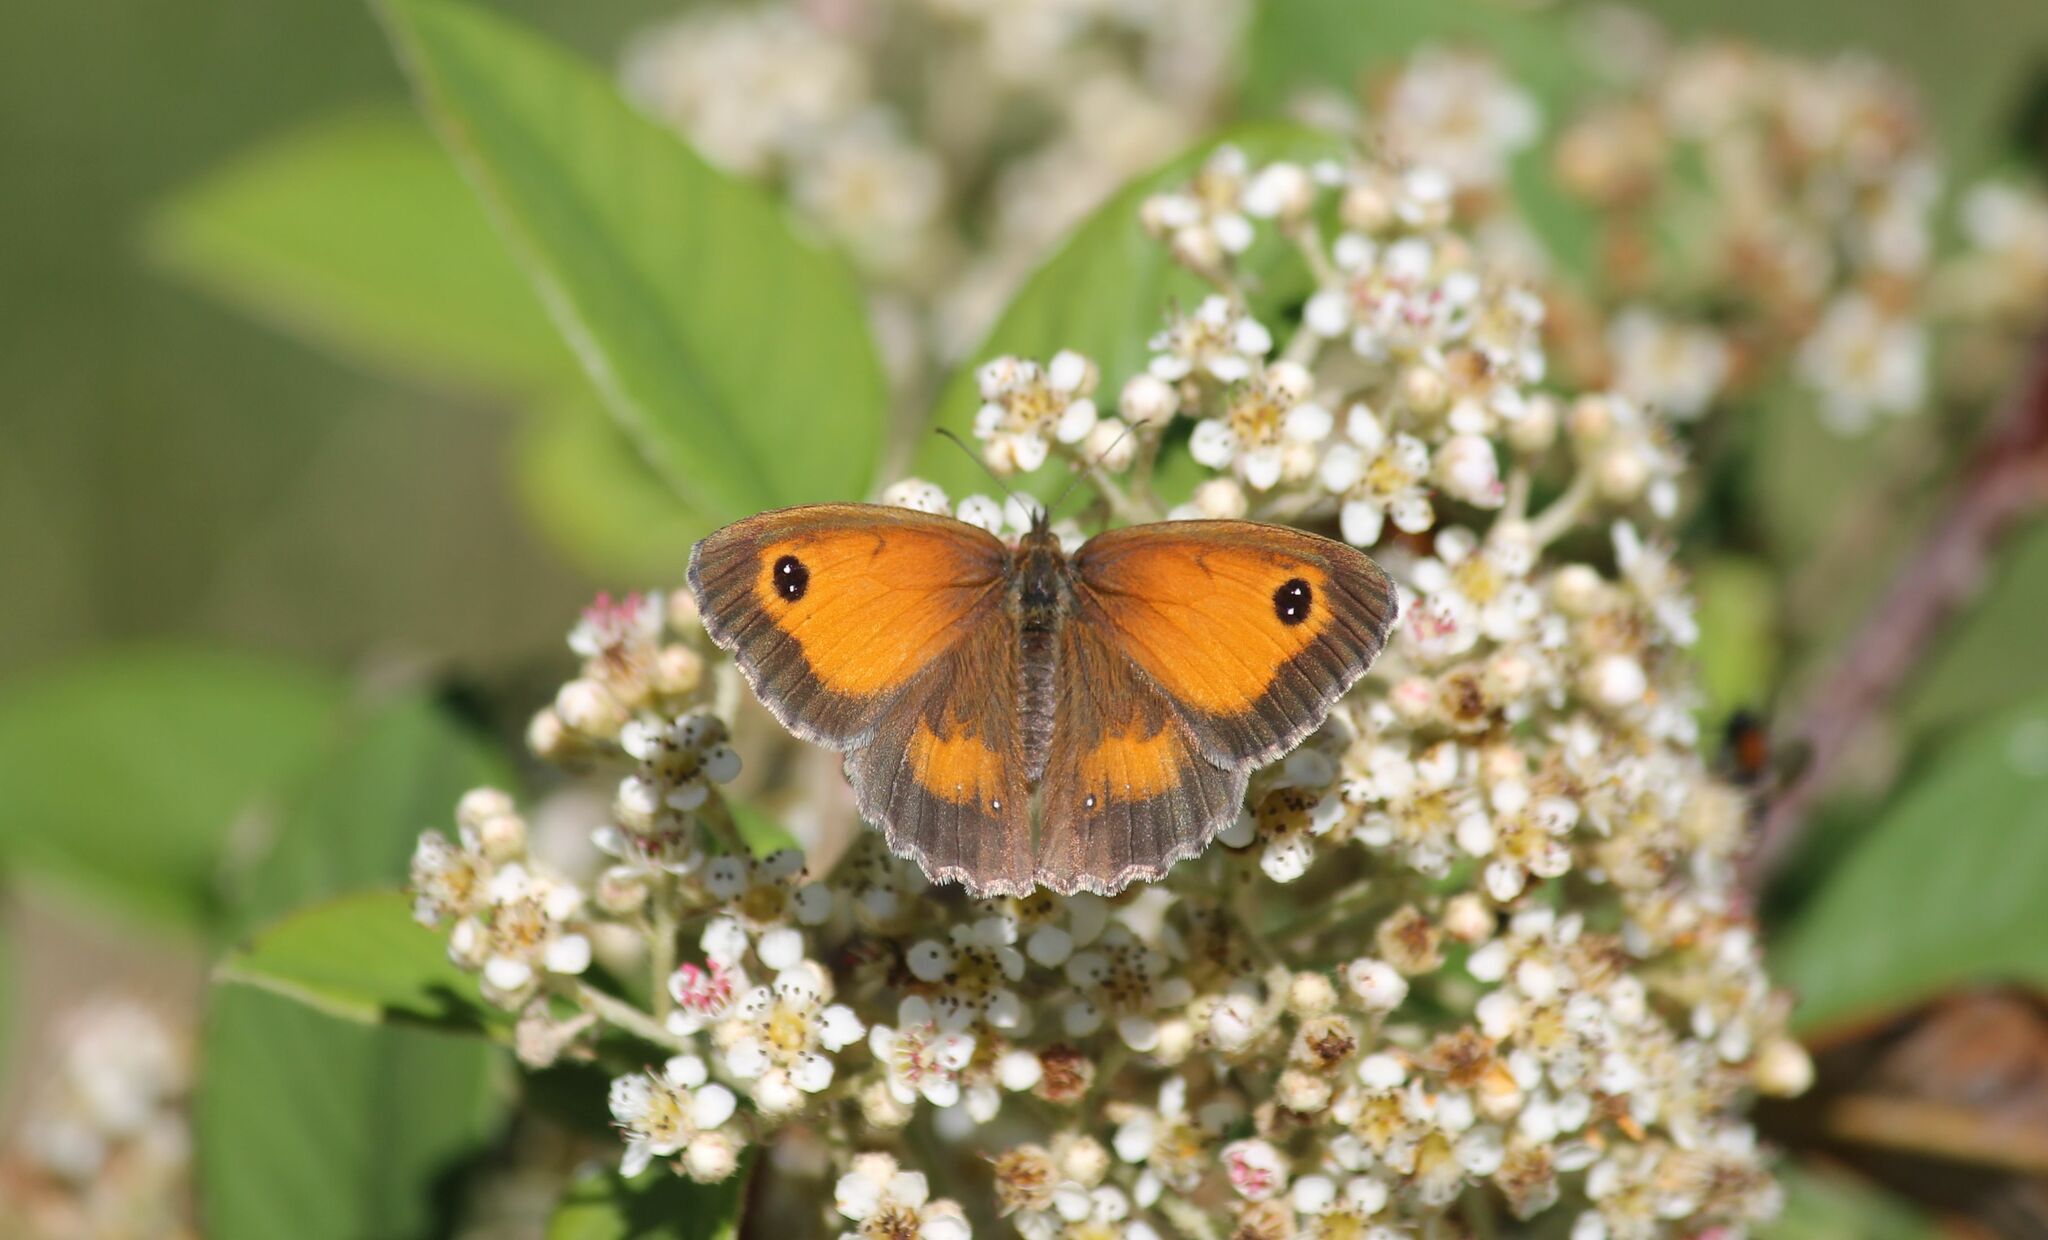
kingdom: Animalia
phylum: Arthropoda
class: Insecta
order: Lepidoptera
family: Nymphalidae
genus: Pyronia
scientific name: Pyronia tithonus
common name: Gatekeeper
